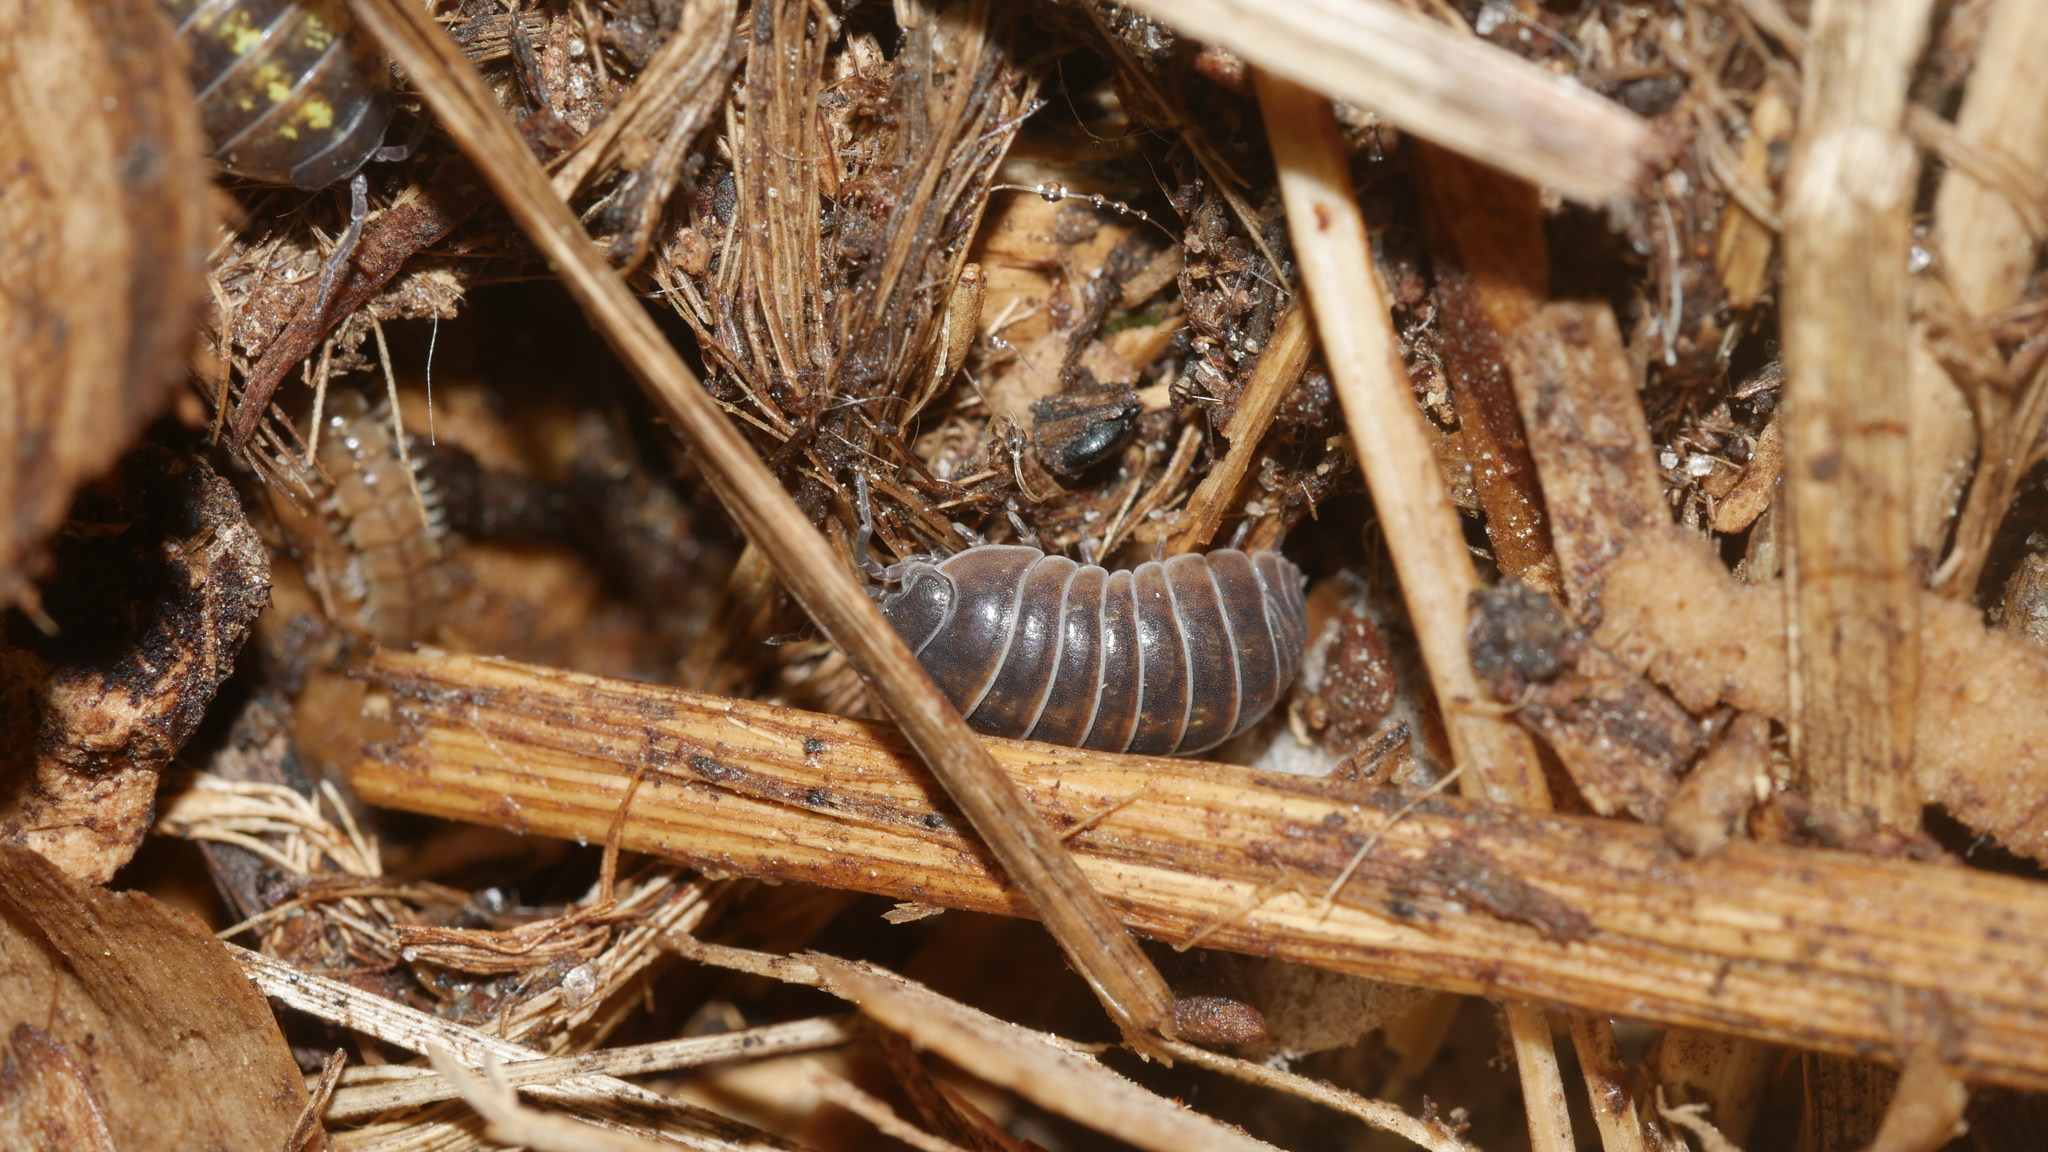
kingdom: Animalia
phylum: Arthropoda
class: Malacostraca
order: Isopoda
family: Armadillidiidae
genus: Armadillidium
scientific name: Armadillidium vulgare
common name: Common pill woodlouse
